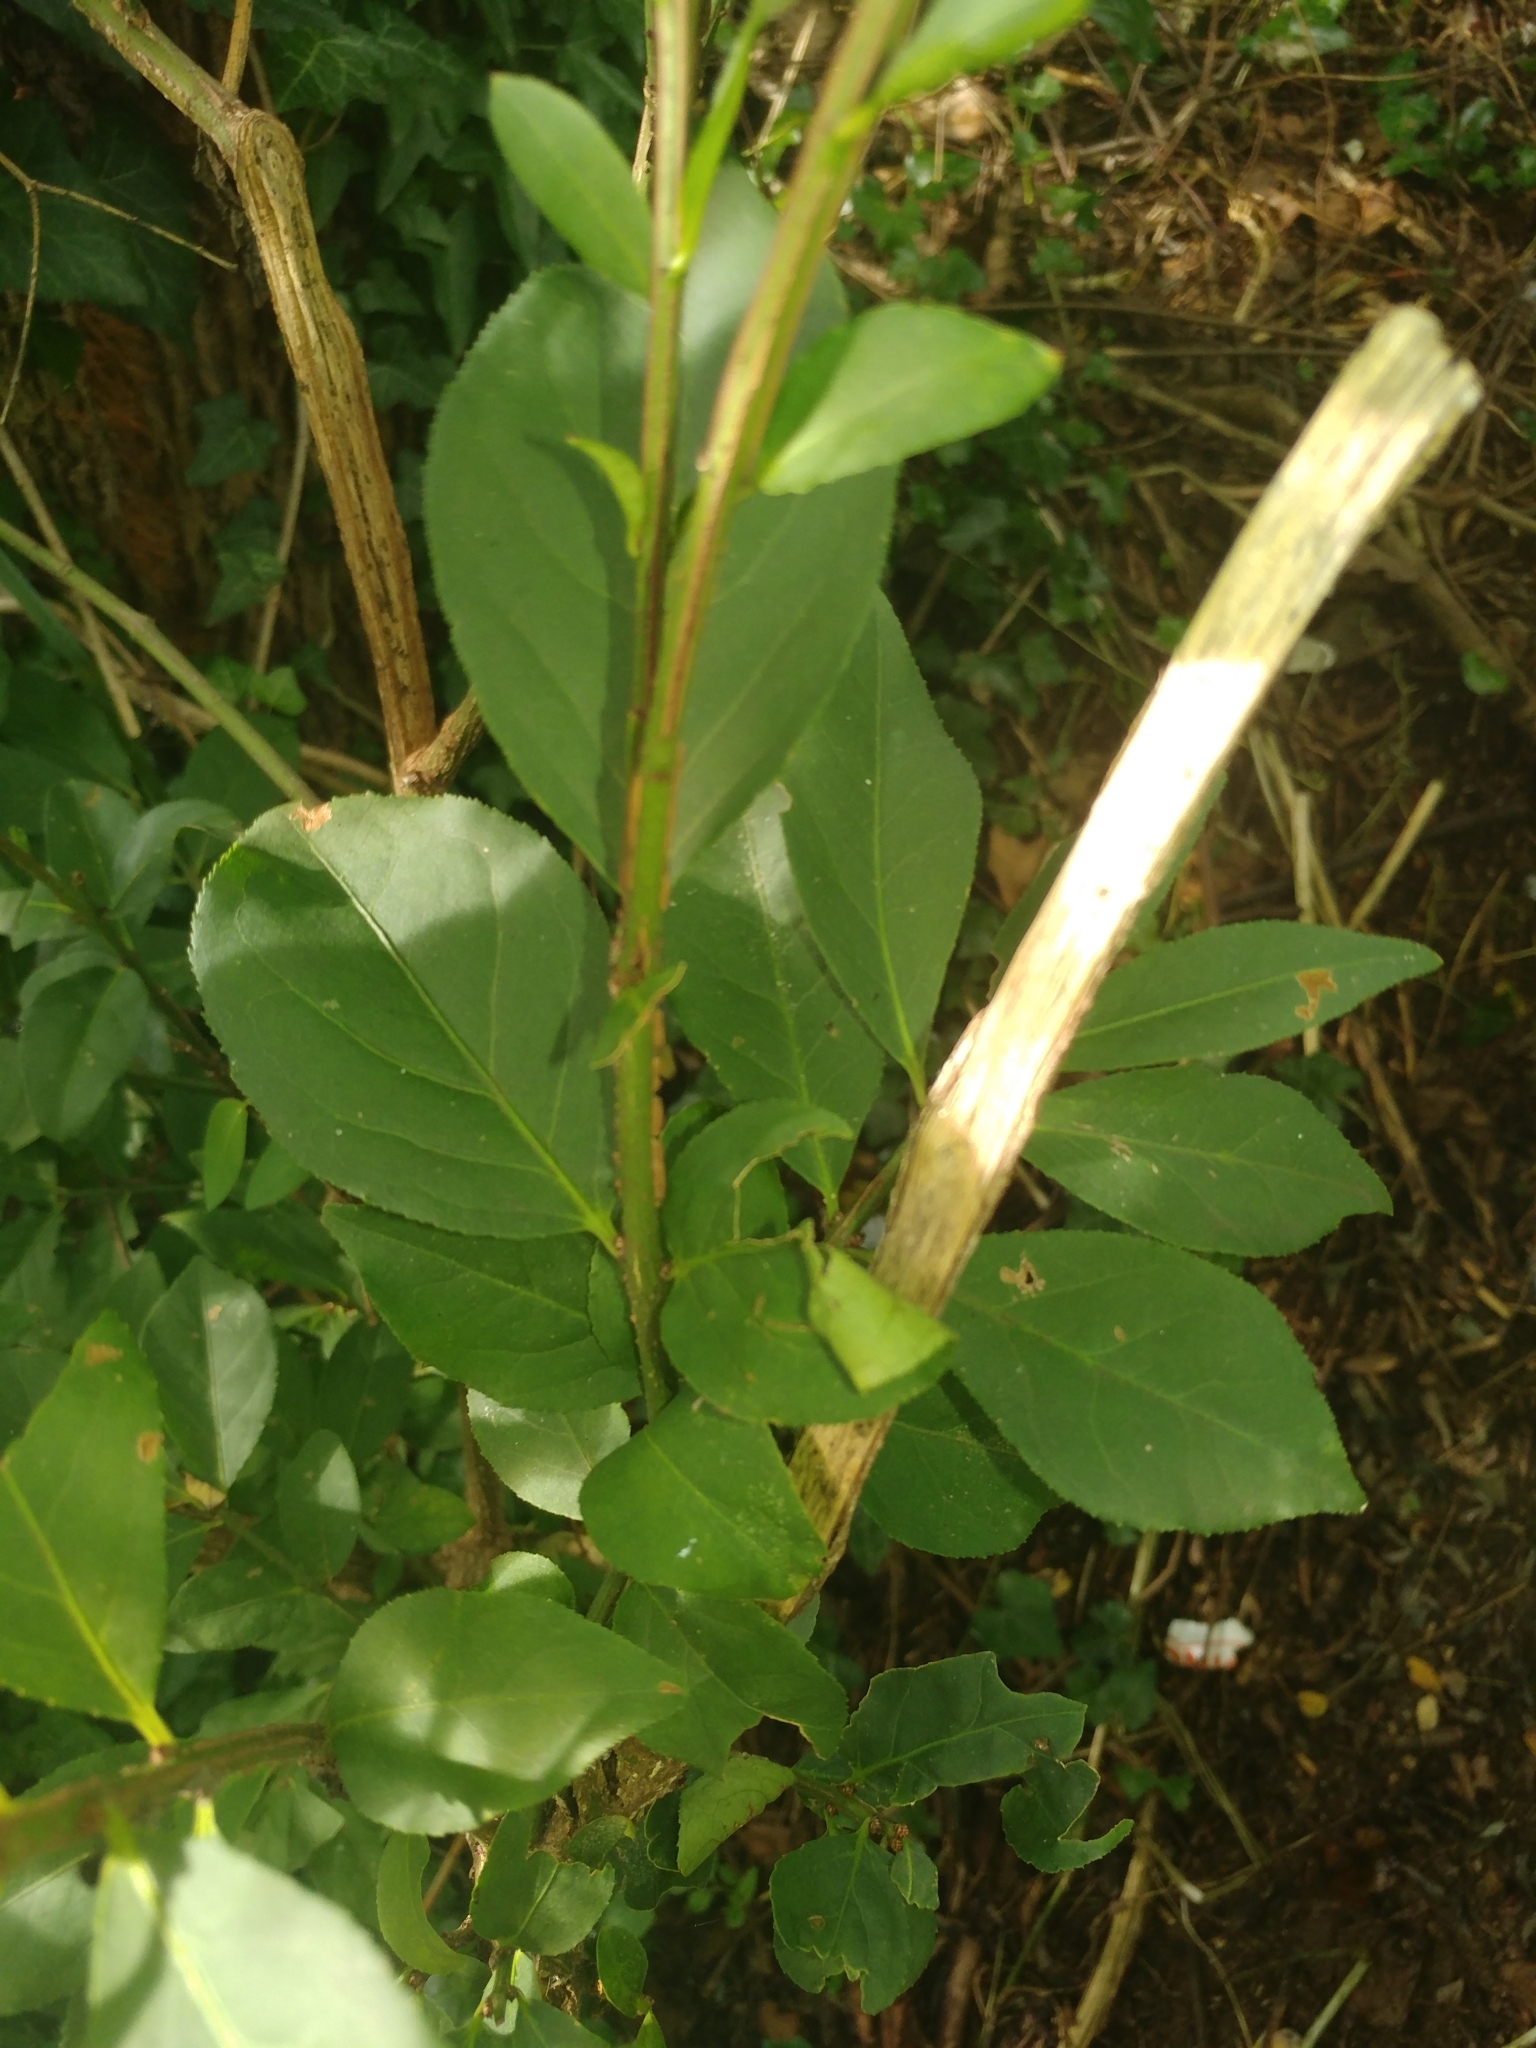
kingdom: Plantae
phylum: Tracheophyta
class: Magnoliopsida
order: Celastrales
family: Celastraceae
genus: Euonymus
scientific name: Euonymus alatus
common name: Winged euonymus
